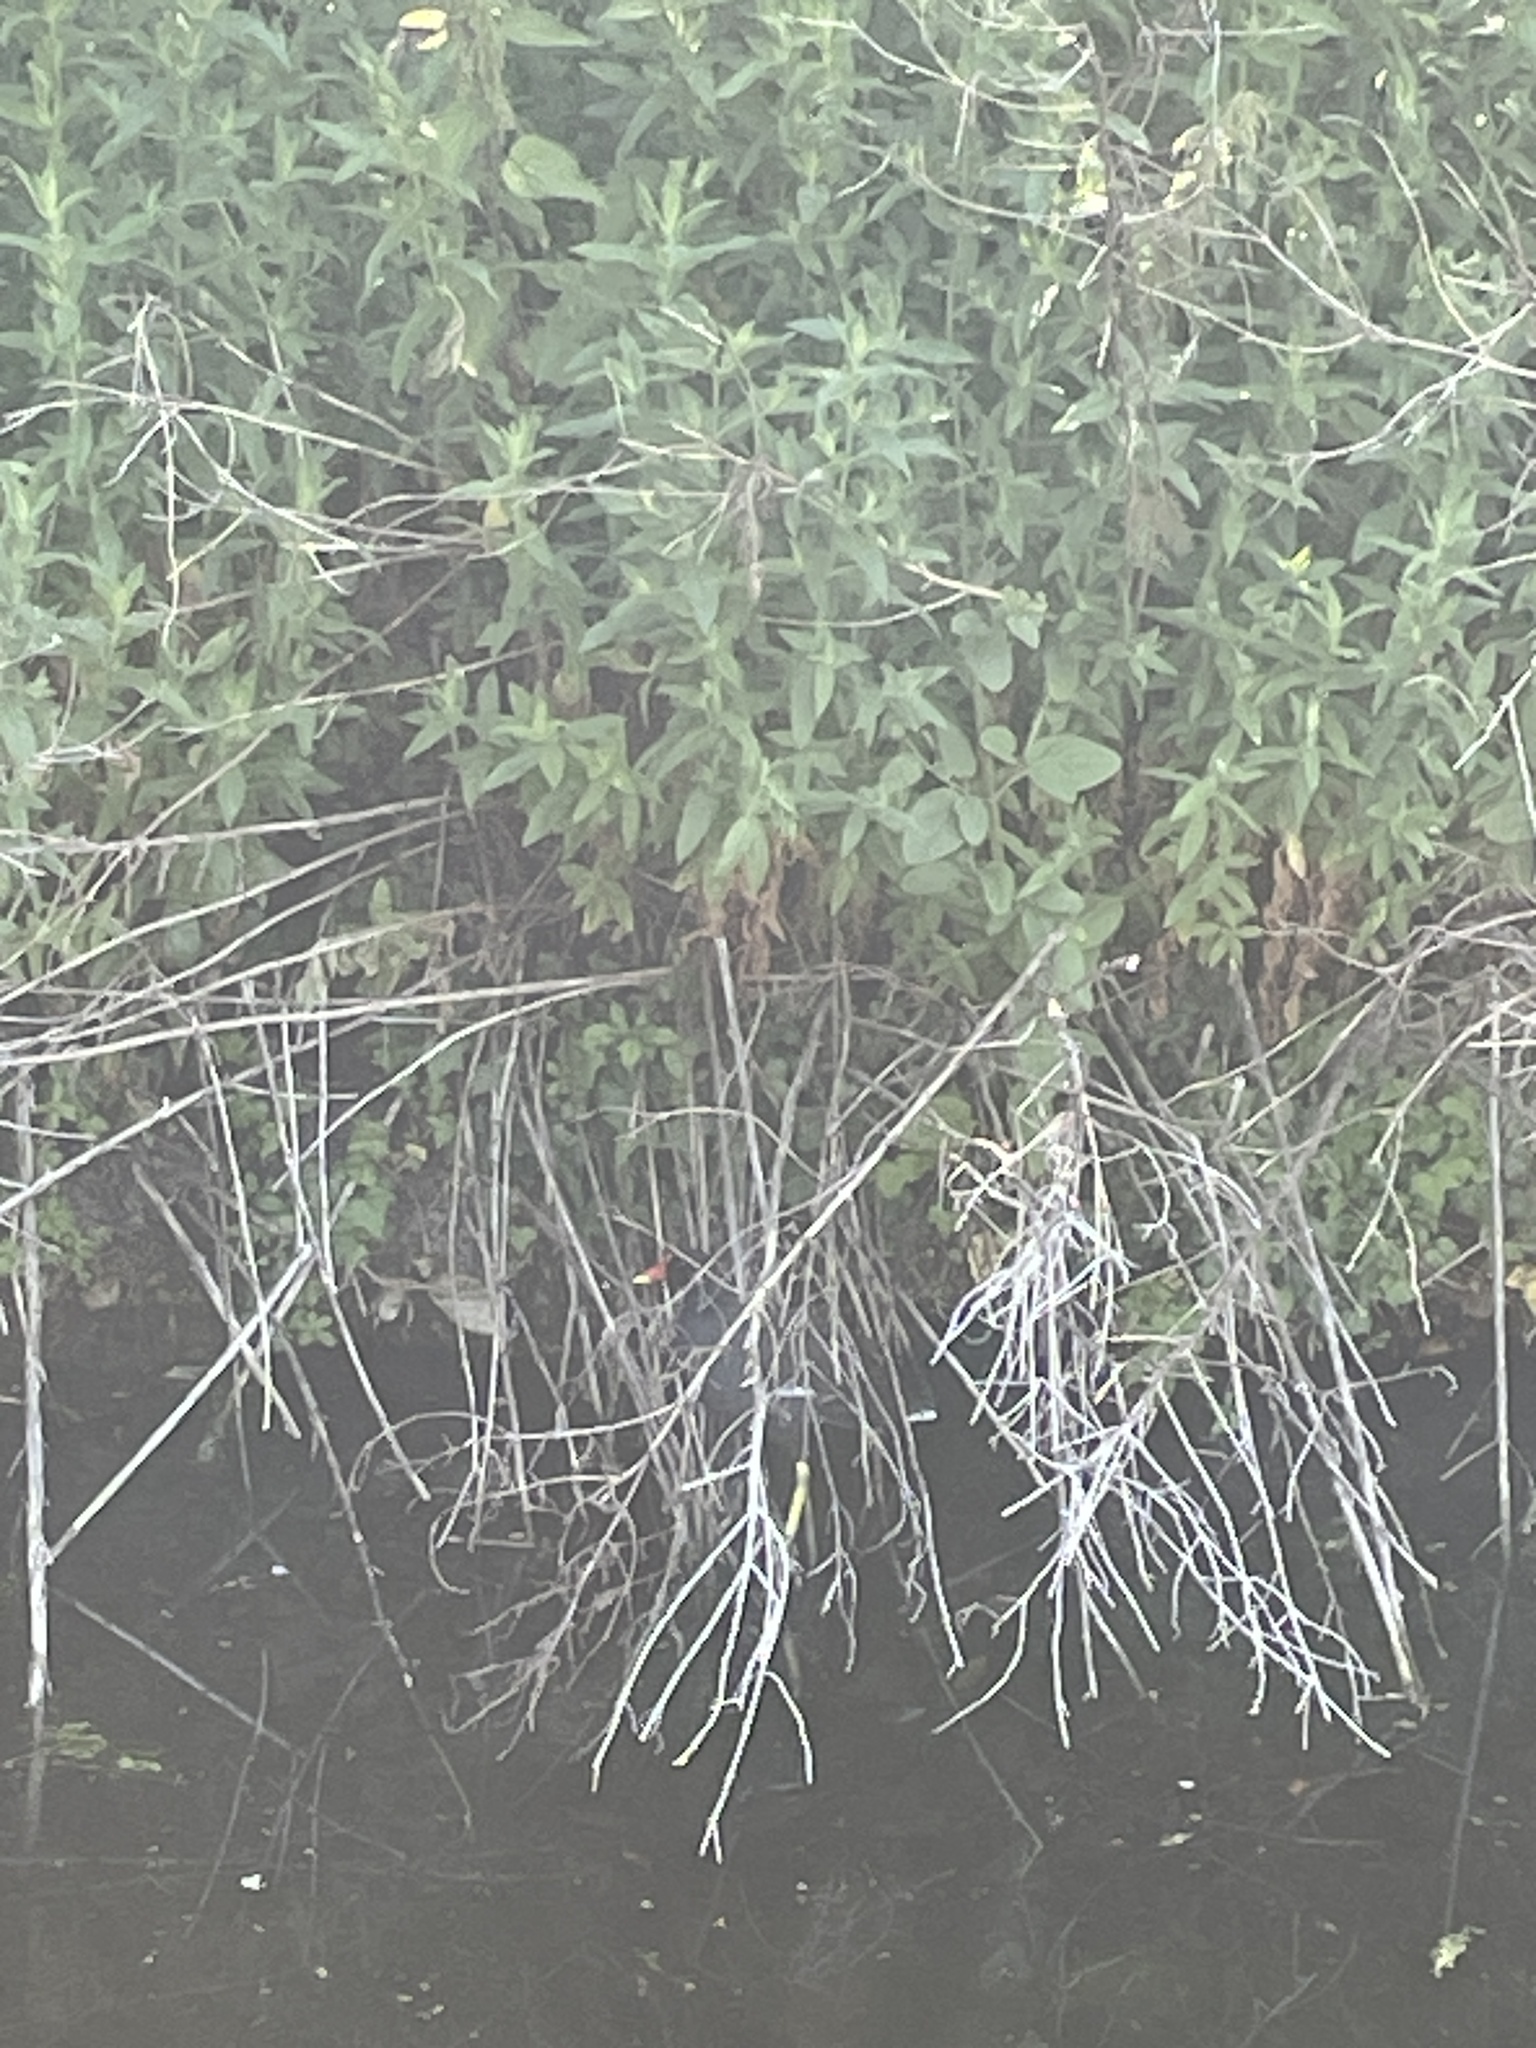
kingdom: Animalia
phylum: Chordata
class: Aves
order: Gruiformes
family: Rallidae
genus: Gallinula
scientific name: Gallinula chloropus
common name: Common moorhen
